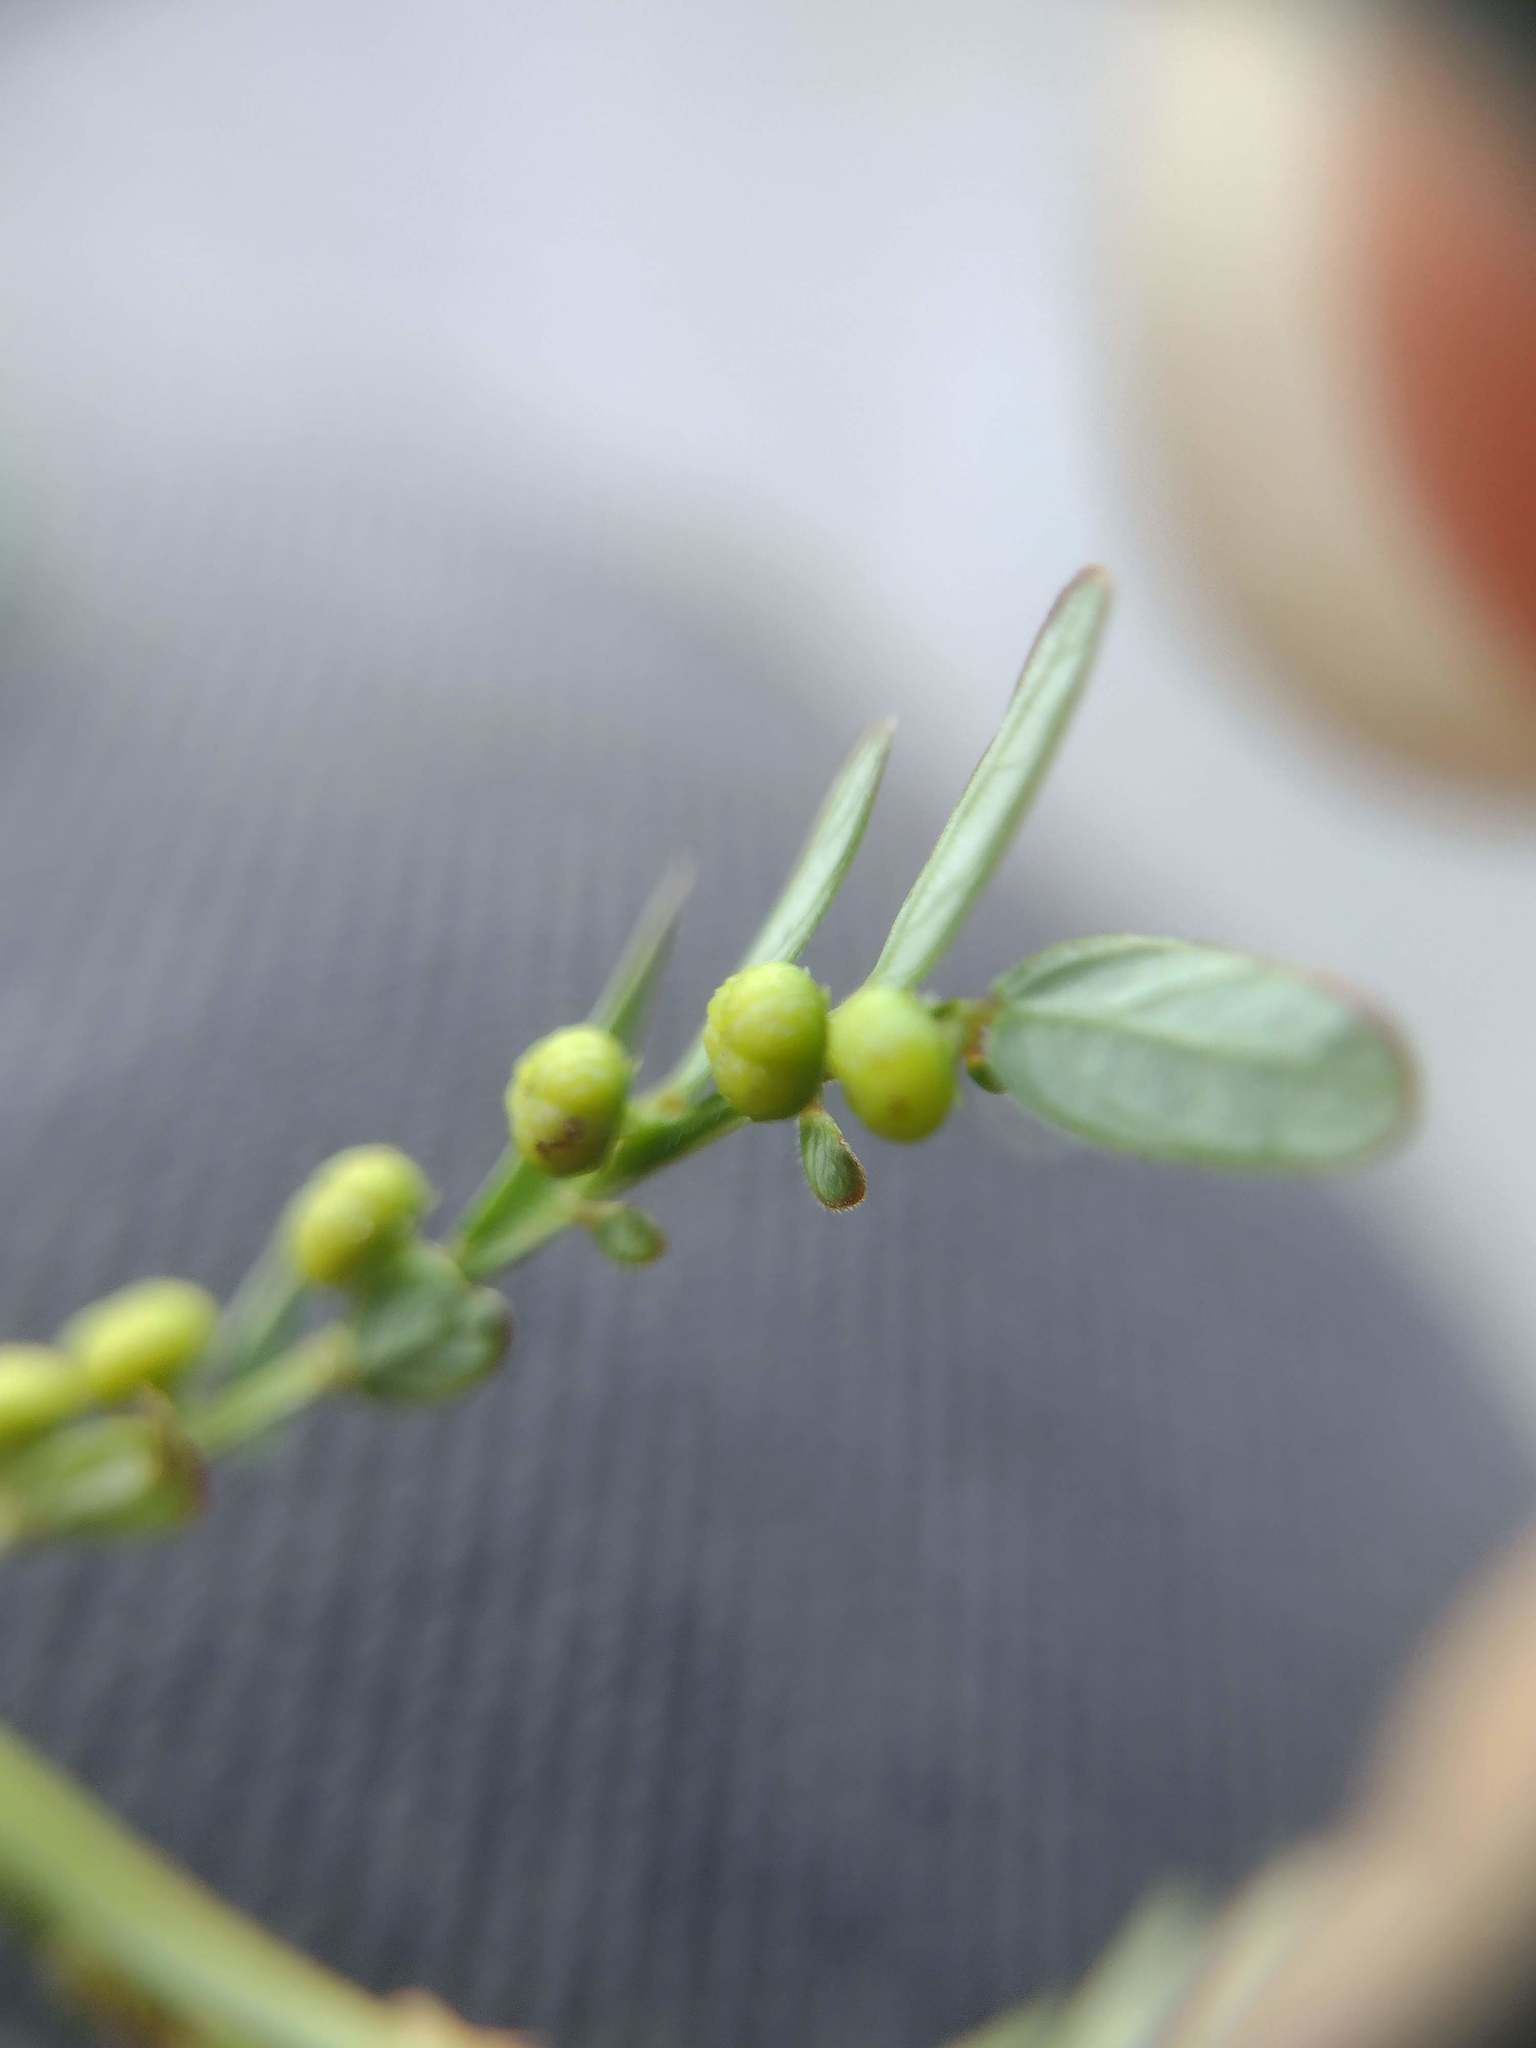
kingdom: Plantae
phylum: Tracheophyta
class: Magnoliopsida
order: Malpighiales
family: Phyllanthaceae
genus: Phyllanthus
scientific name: Phyllanthus urinaria
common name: Chamber bitter
